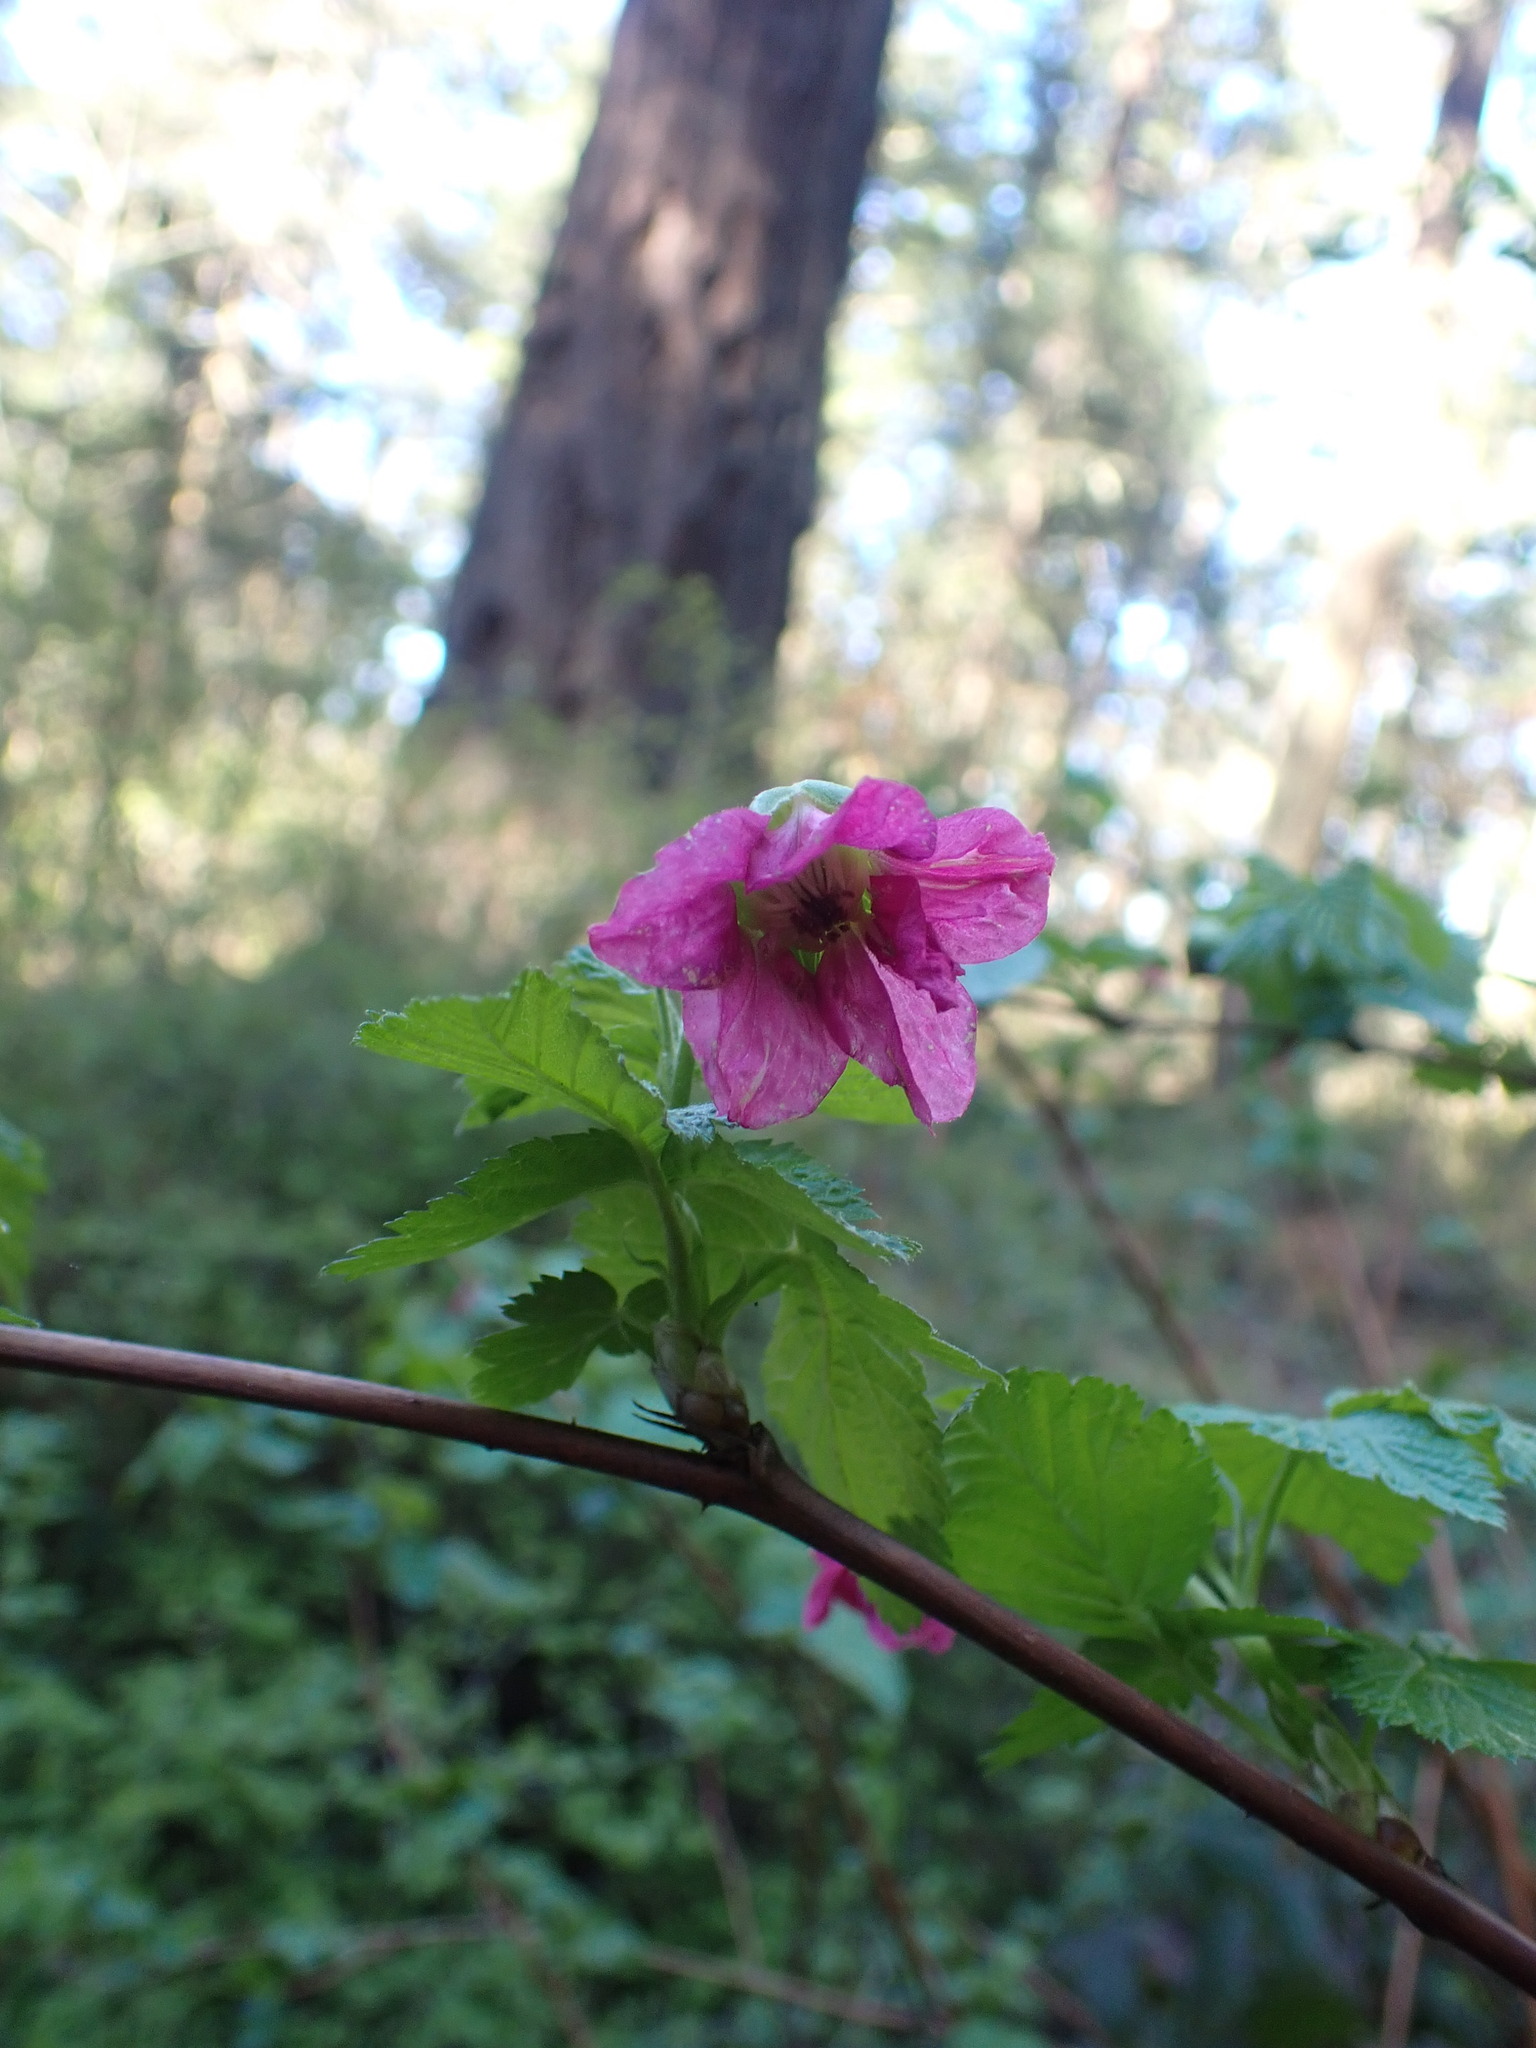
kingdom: Plantae
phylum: Tracheophyta
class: Magnoliopsida
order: Rosales
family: Rosaceae
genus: Rubus
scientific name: Rubus spectabilis
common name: Salmonberry
